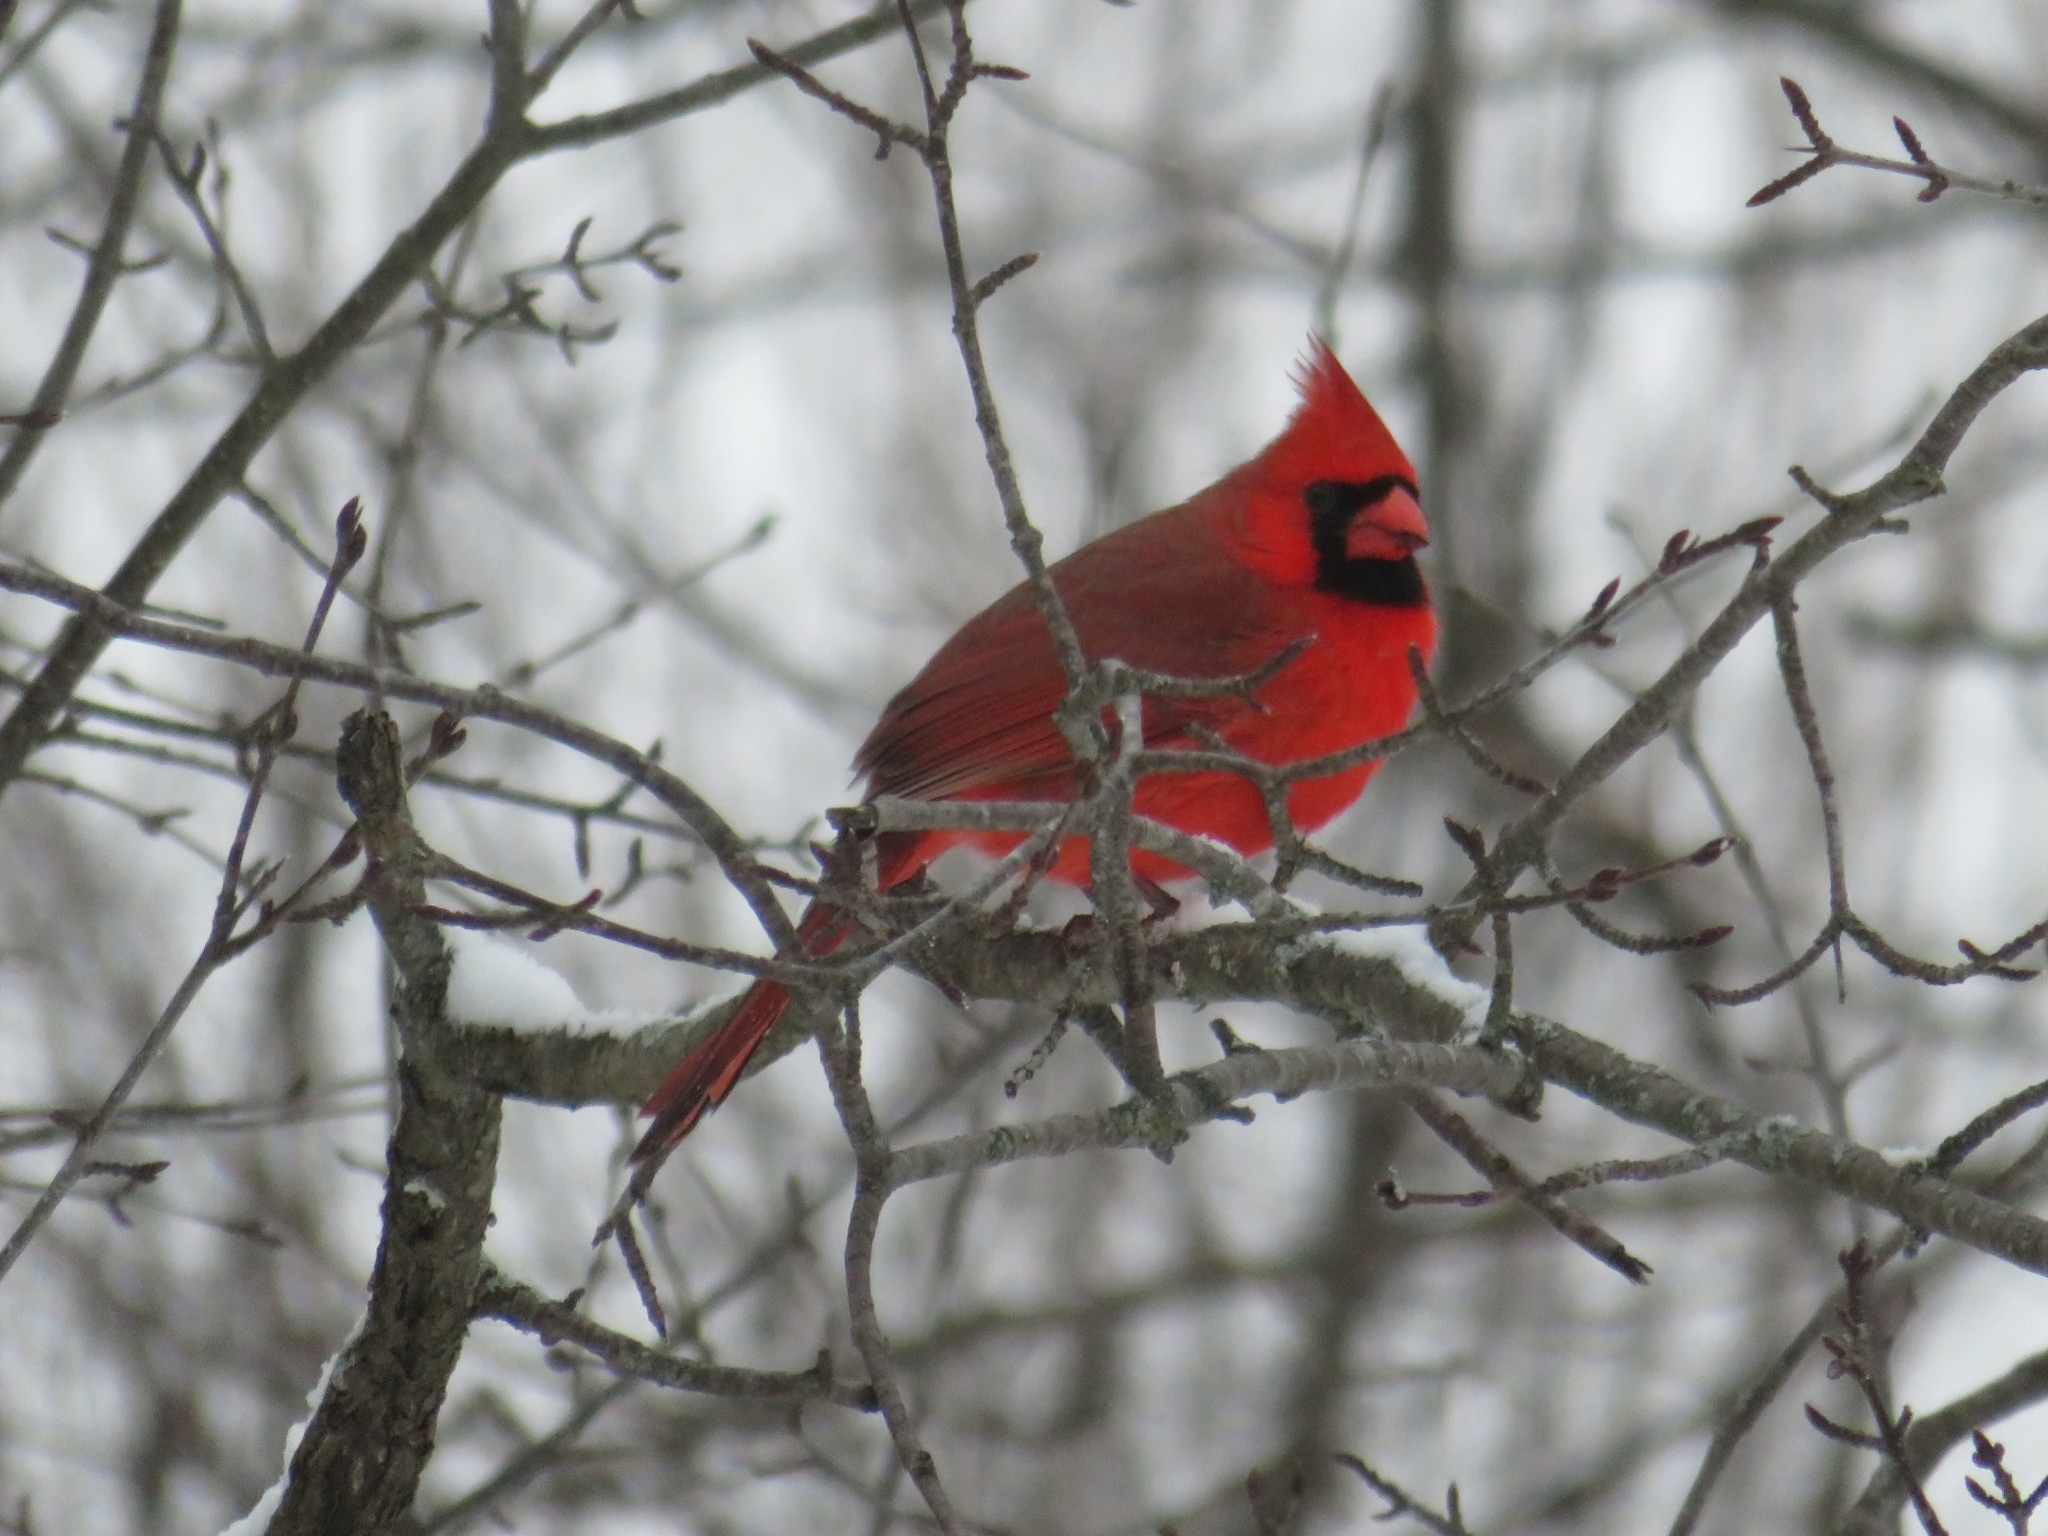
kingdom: Animalia
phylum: Chordata
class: Aves
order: Passeriformes
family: Cardinalidae
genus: Cardinalis
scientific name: Cardinalis cardinalis
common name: Northern cardinal
